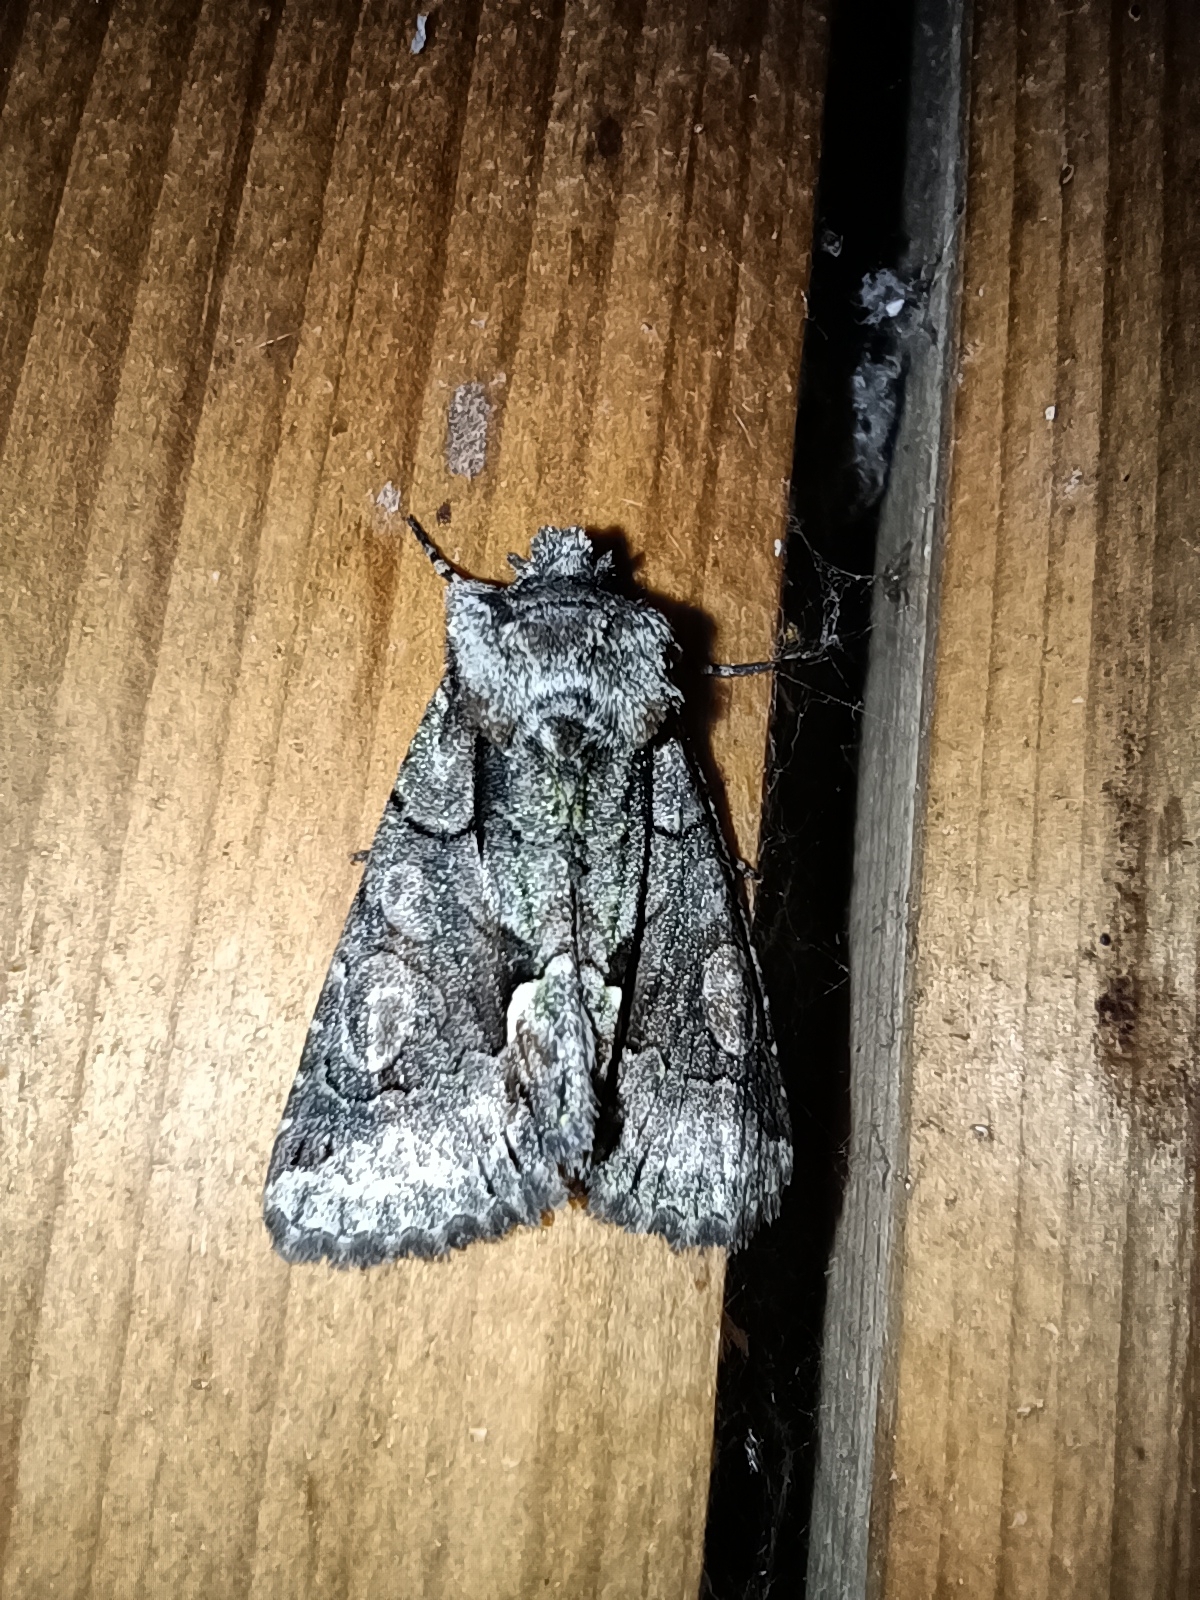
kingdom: Animalia
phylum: Arthropoda
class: Insecta
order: Lepidoptera
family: Noctuidae
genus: Allophyes
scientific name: Allophyes oxyacanthae
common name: Green-brindled crescent
